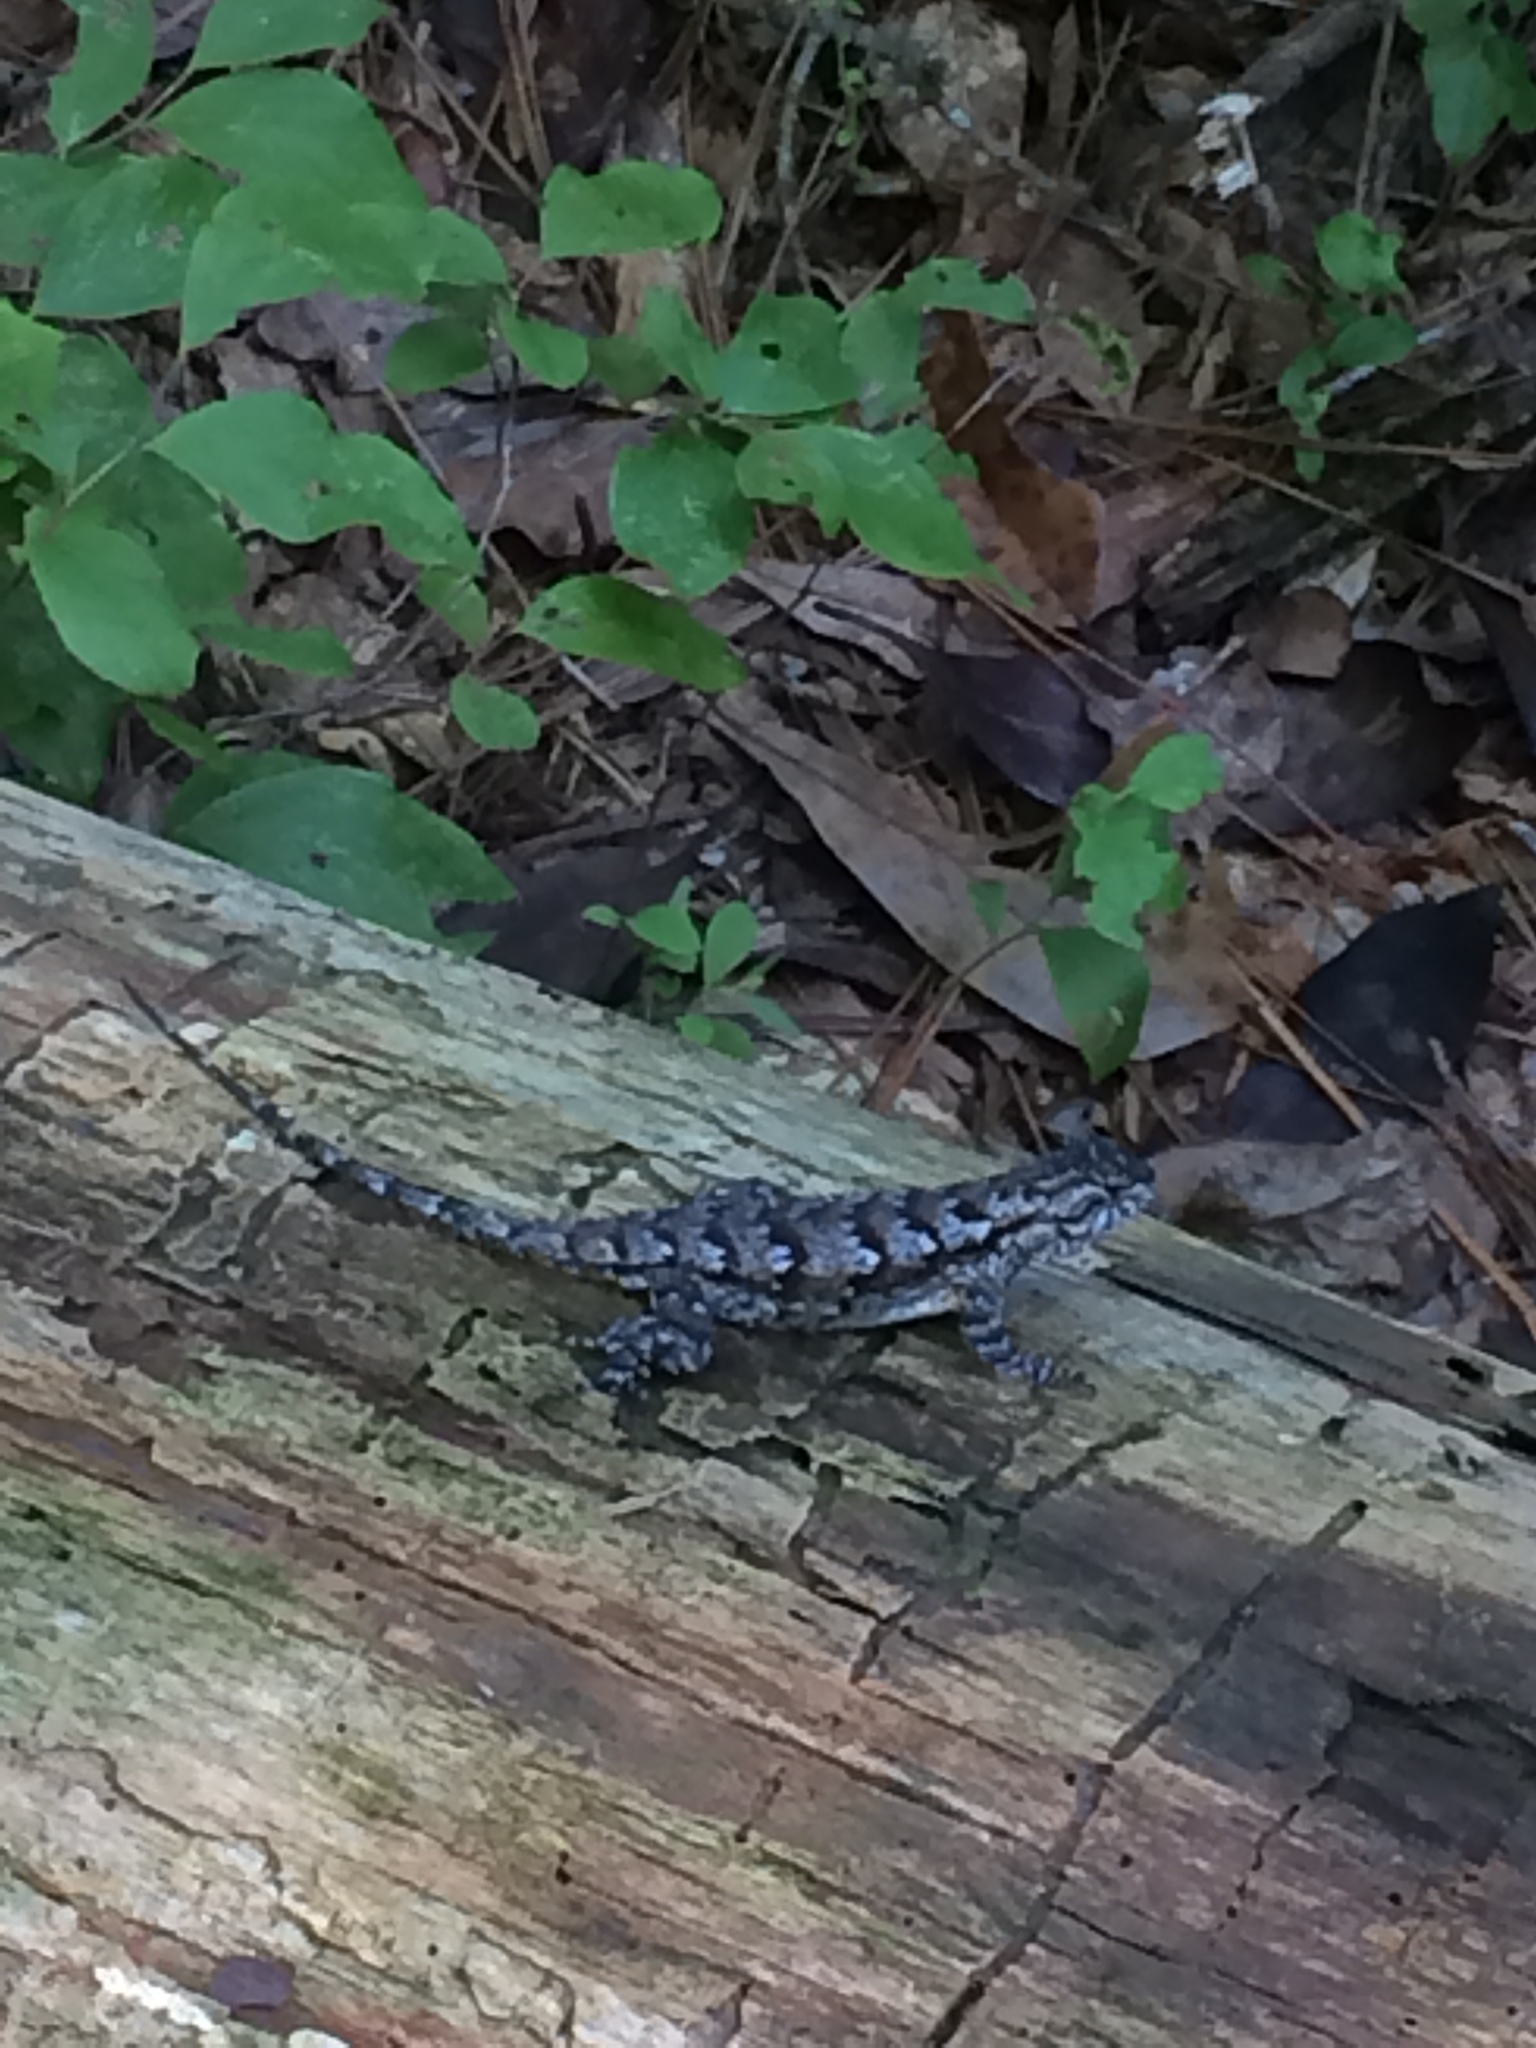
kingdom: Animalia
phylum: Chordata
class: Squamata
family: Phrynosomatidae
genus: Sceloporus
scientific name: Sceloporus undulatus
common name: Eastern fence lizard
